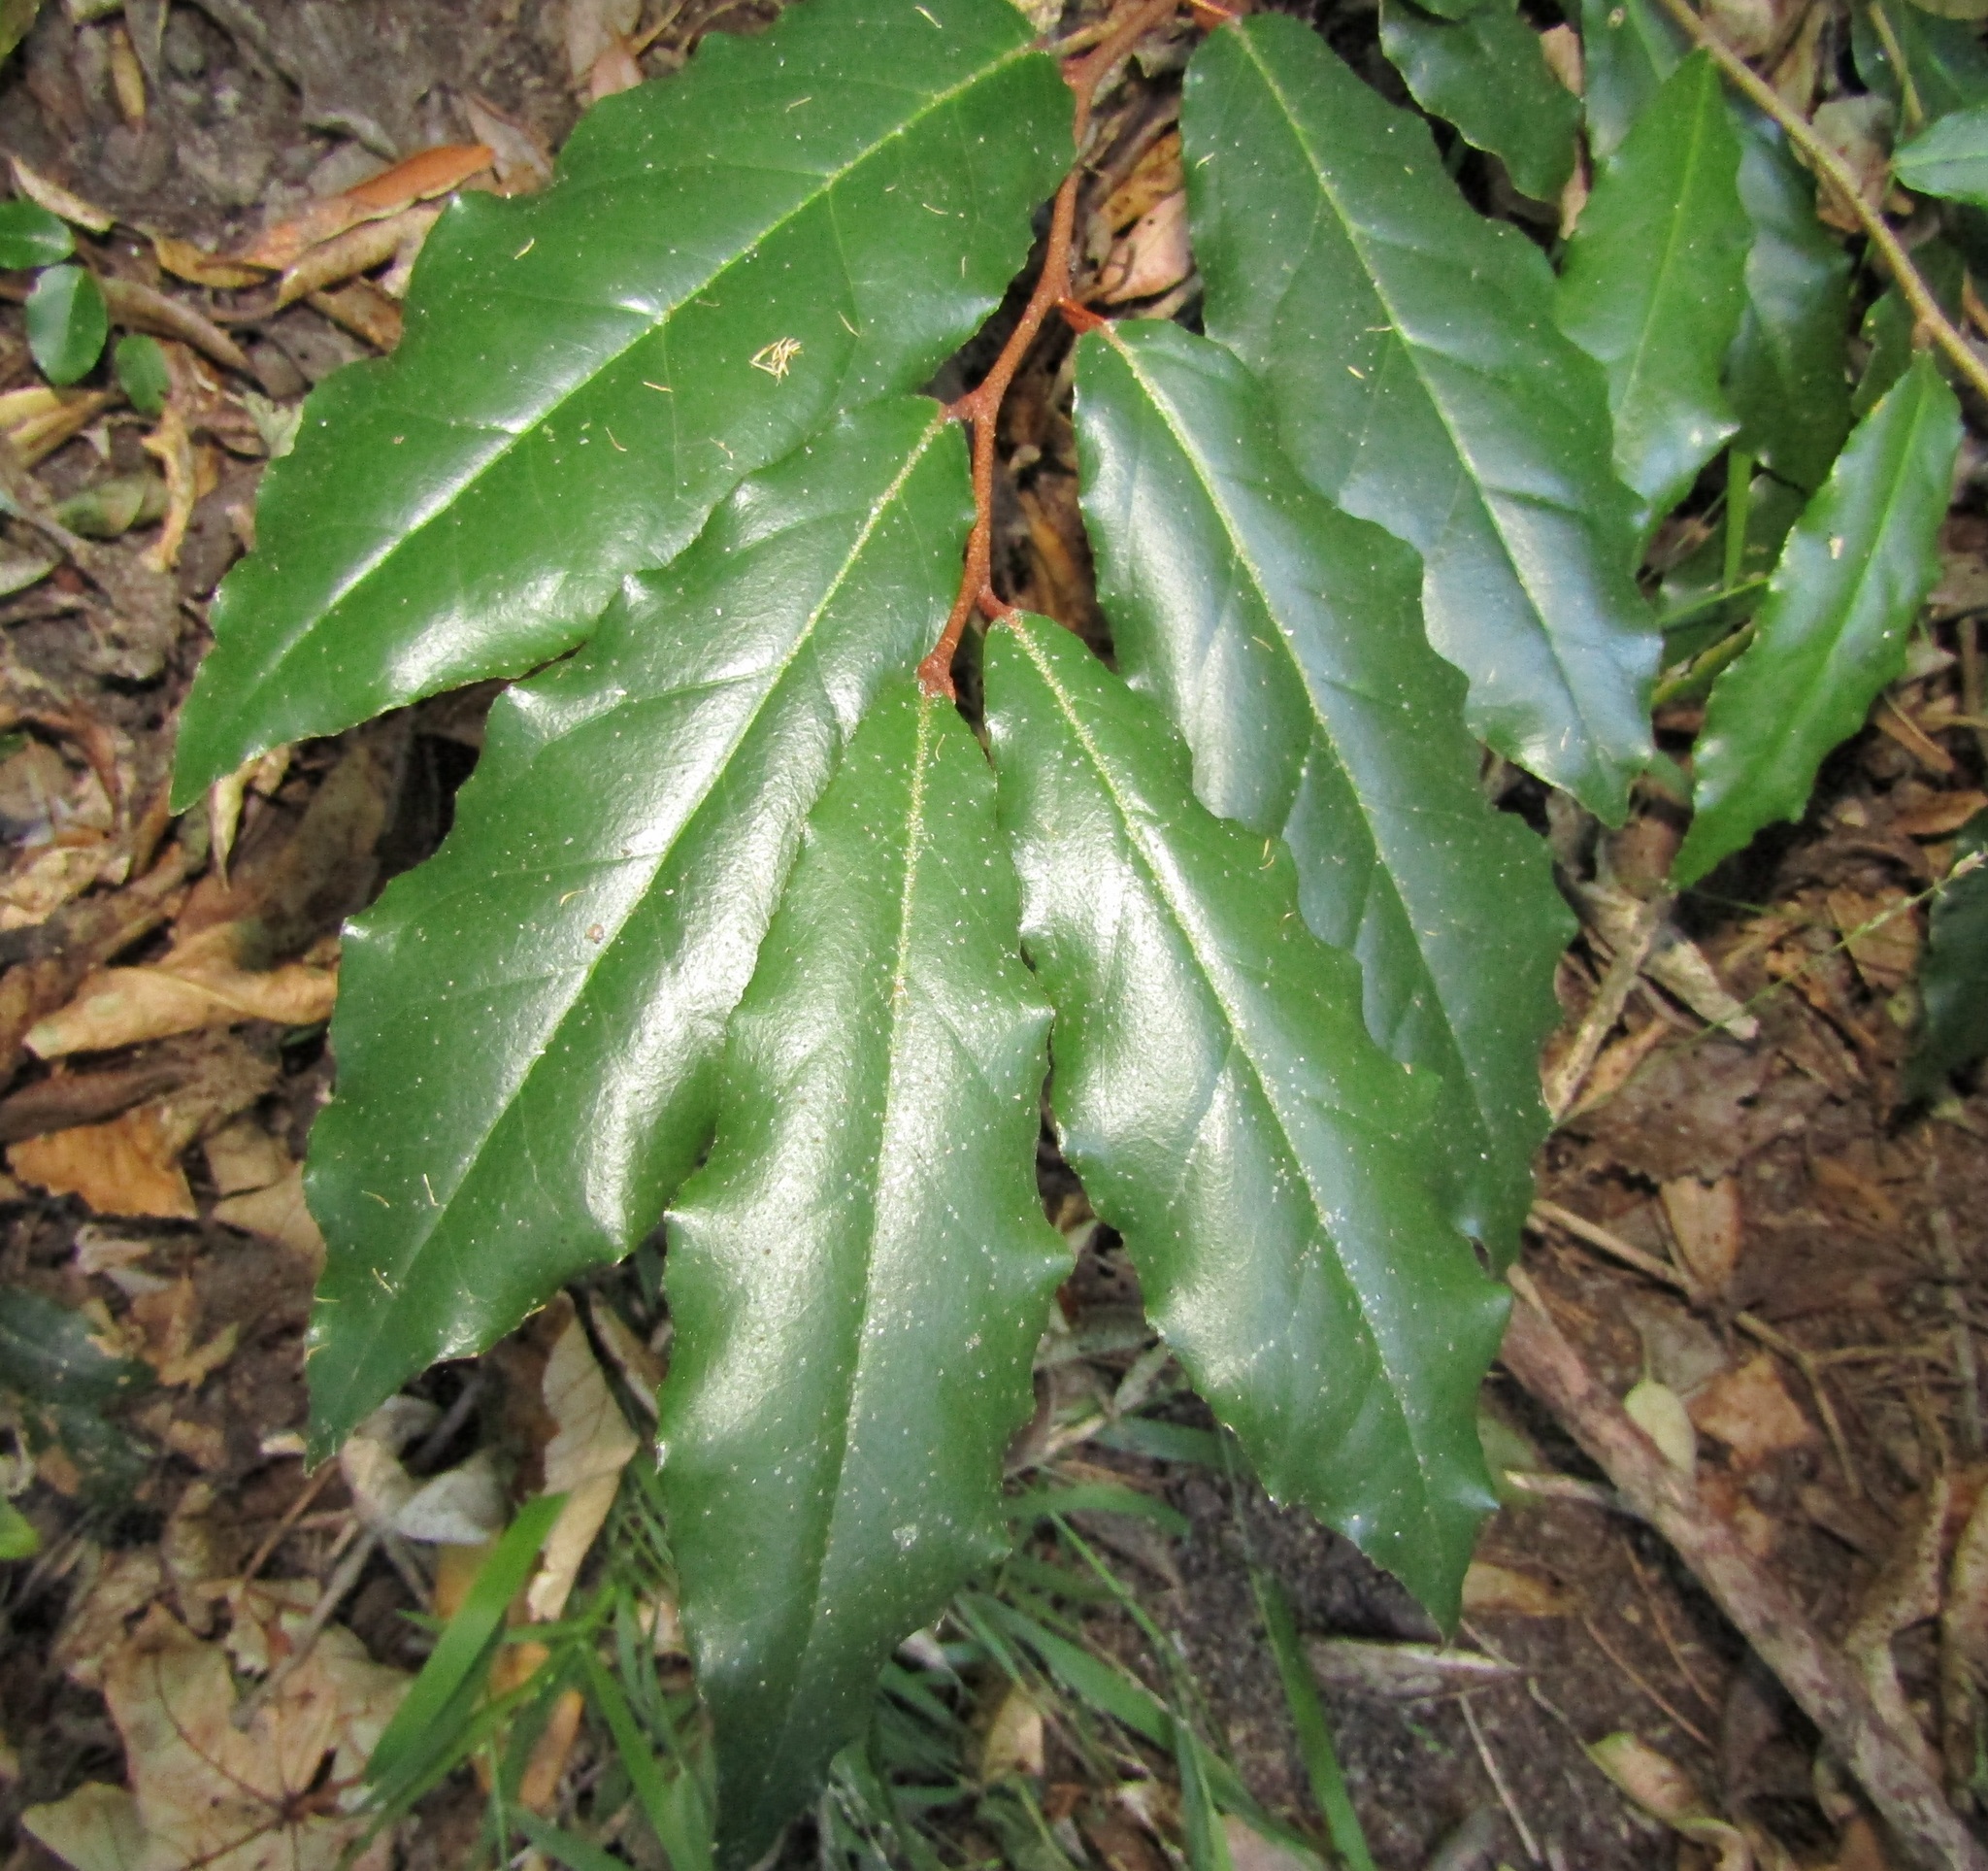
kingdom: Plantae
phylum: Tracheophyta
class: Magnoliopsida
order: Rosales
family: Elaeagnaceae
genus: Elaeagnus
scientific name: Elaeagnus pungens
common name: Spiny oleaster
